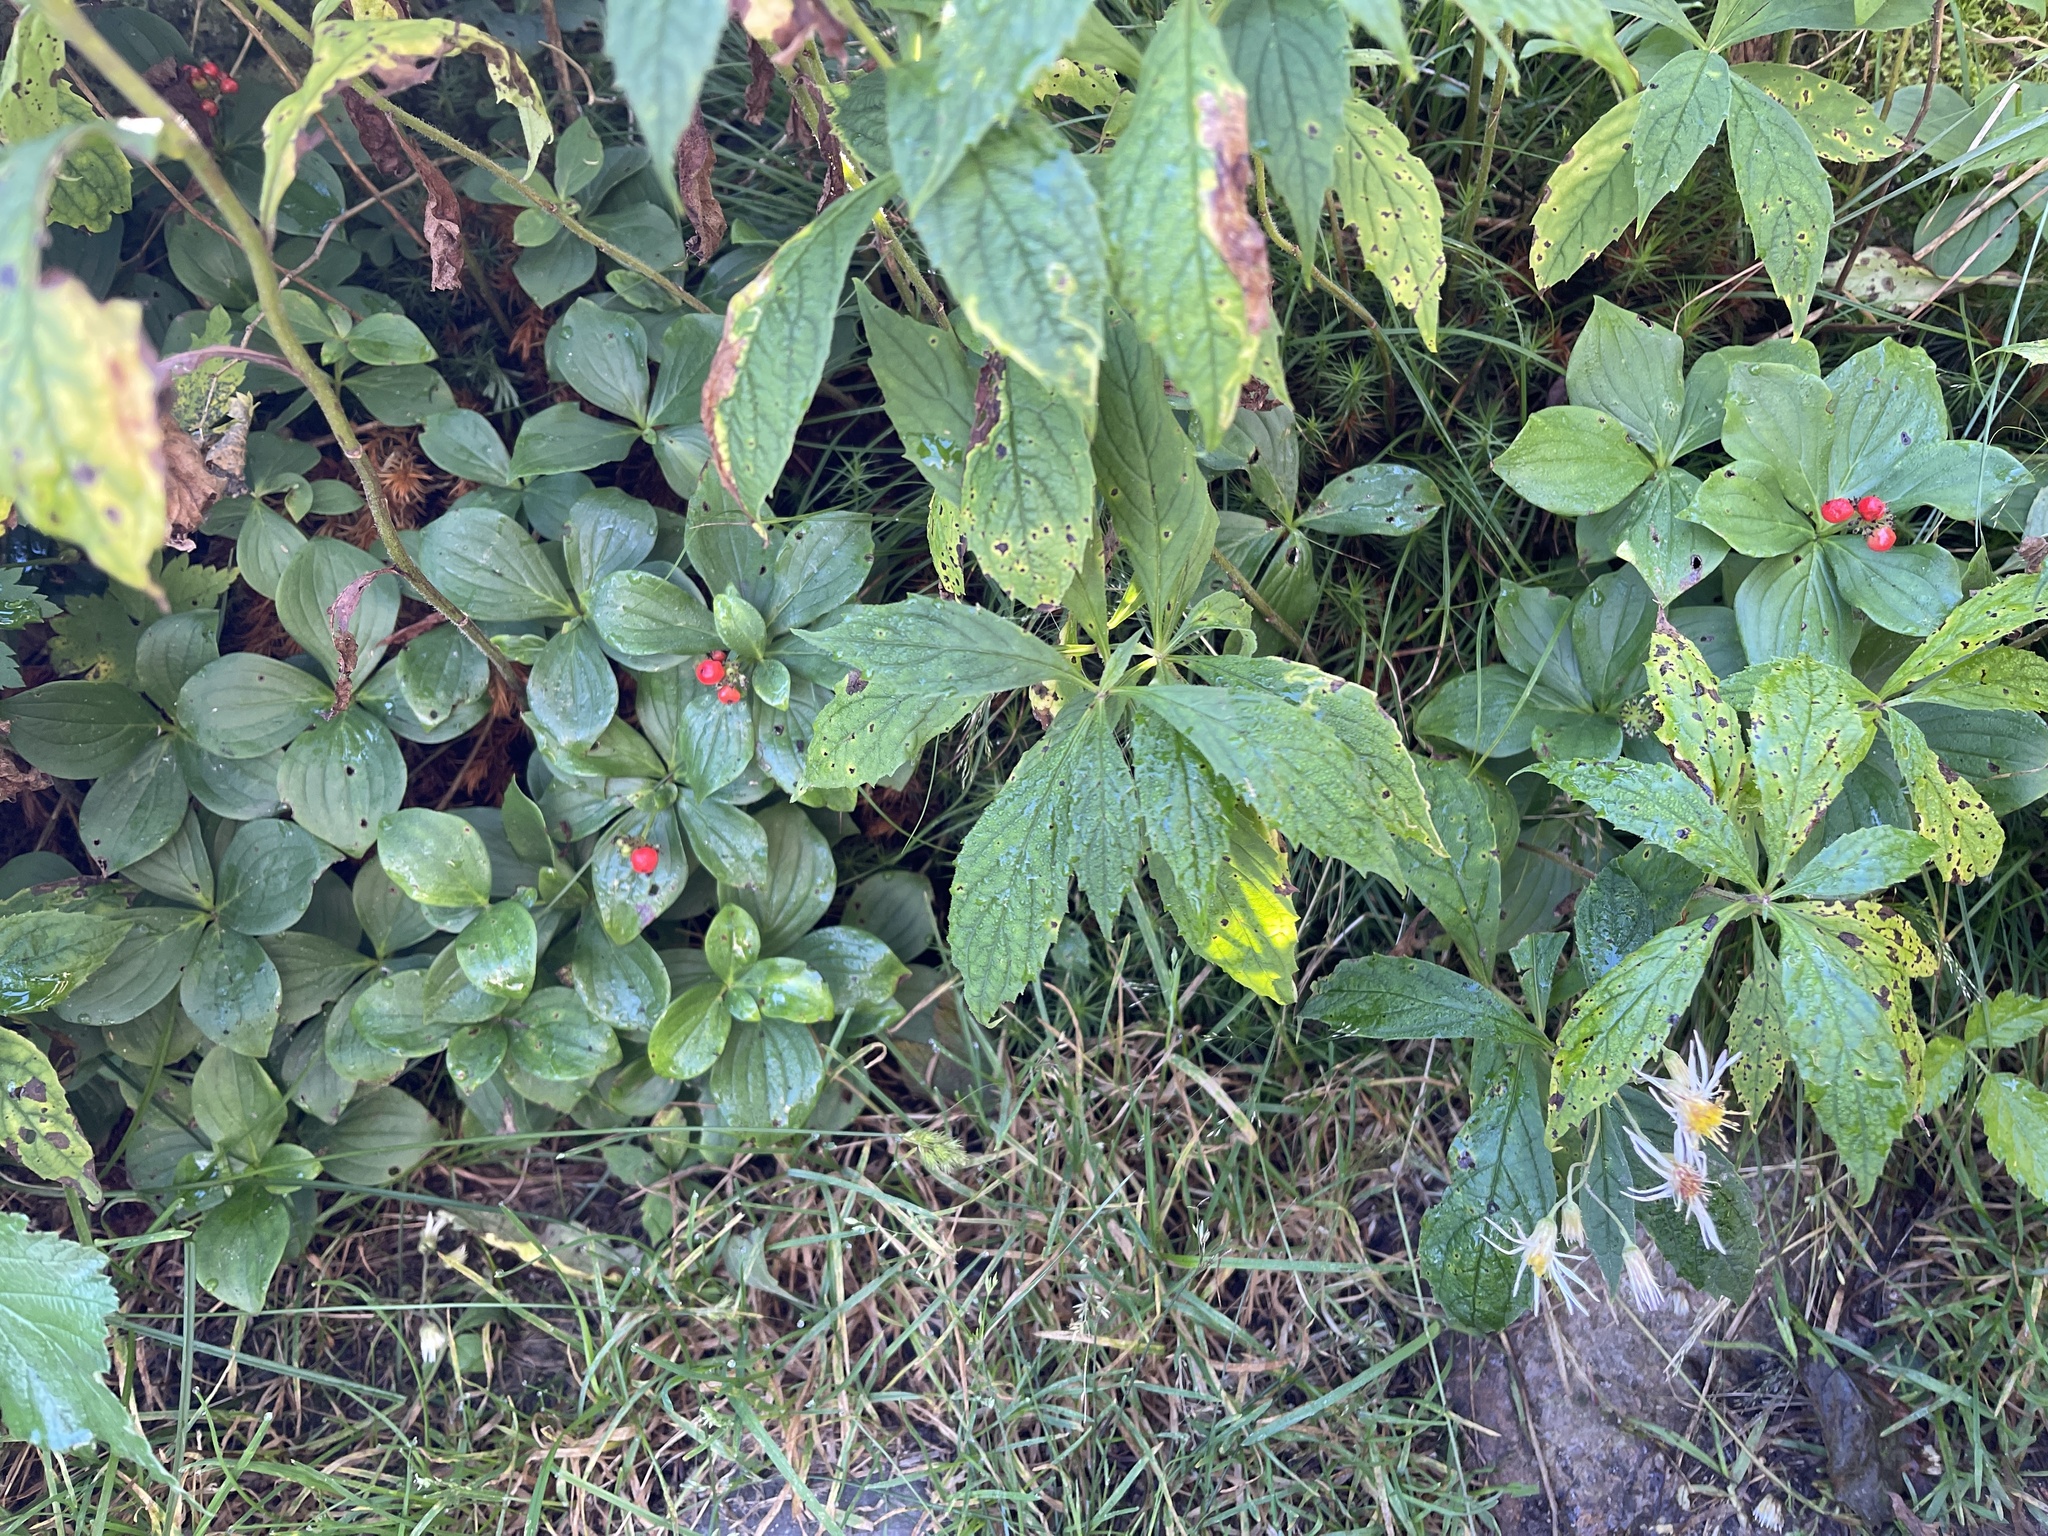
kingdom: Plantae
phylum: Tracheophyta
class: Magnoliopsida
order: Cornales
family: Cornaceae
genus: Cornus
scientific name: Cornus canadensis
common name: Creeping dogwood
